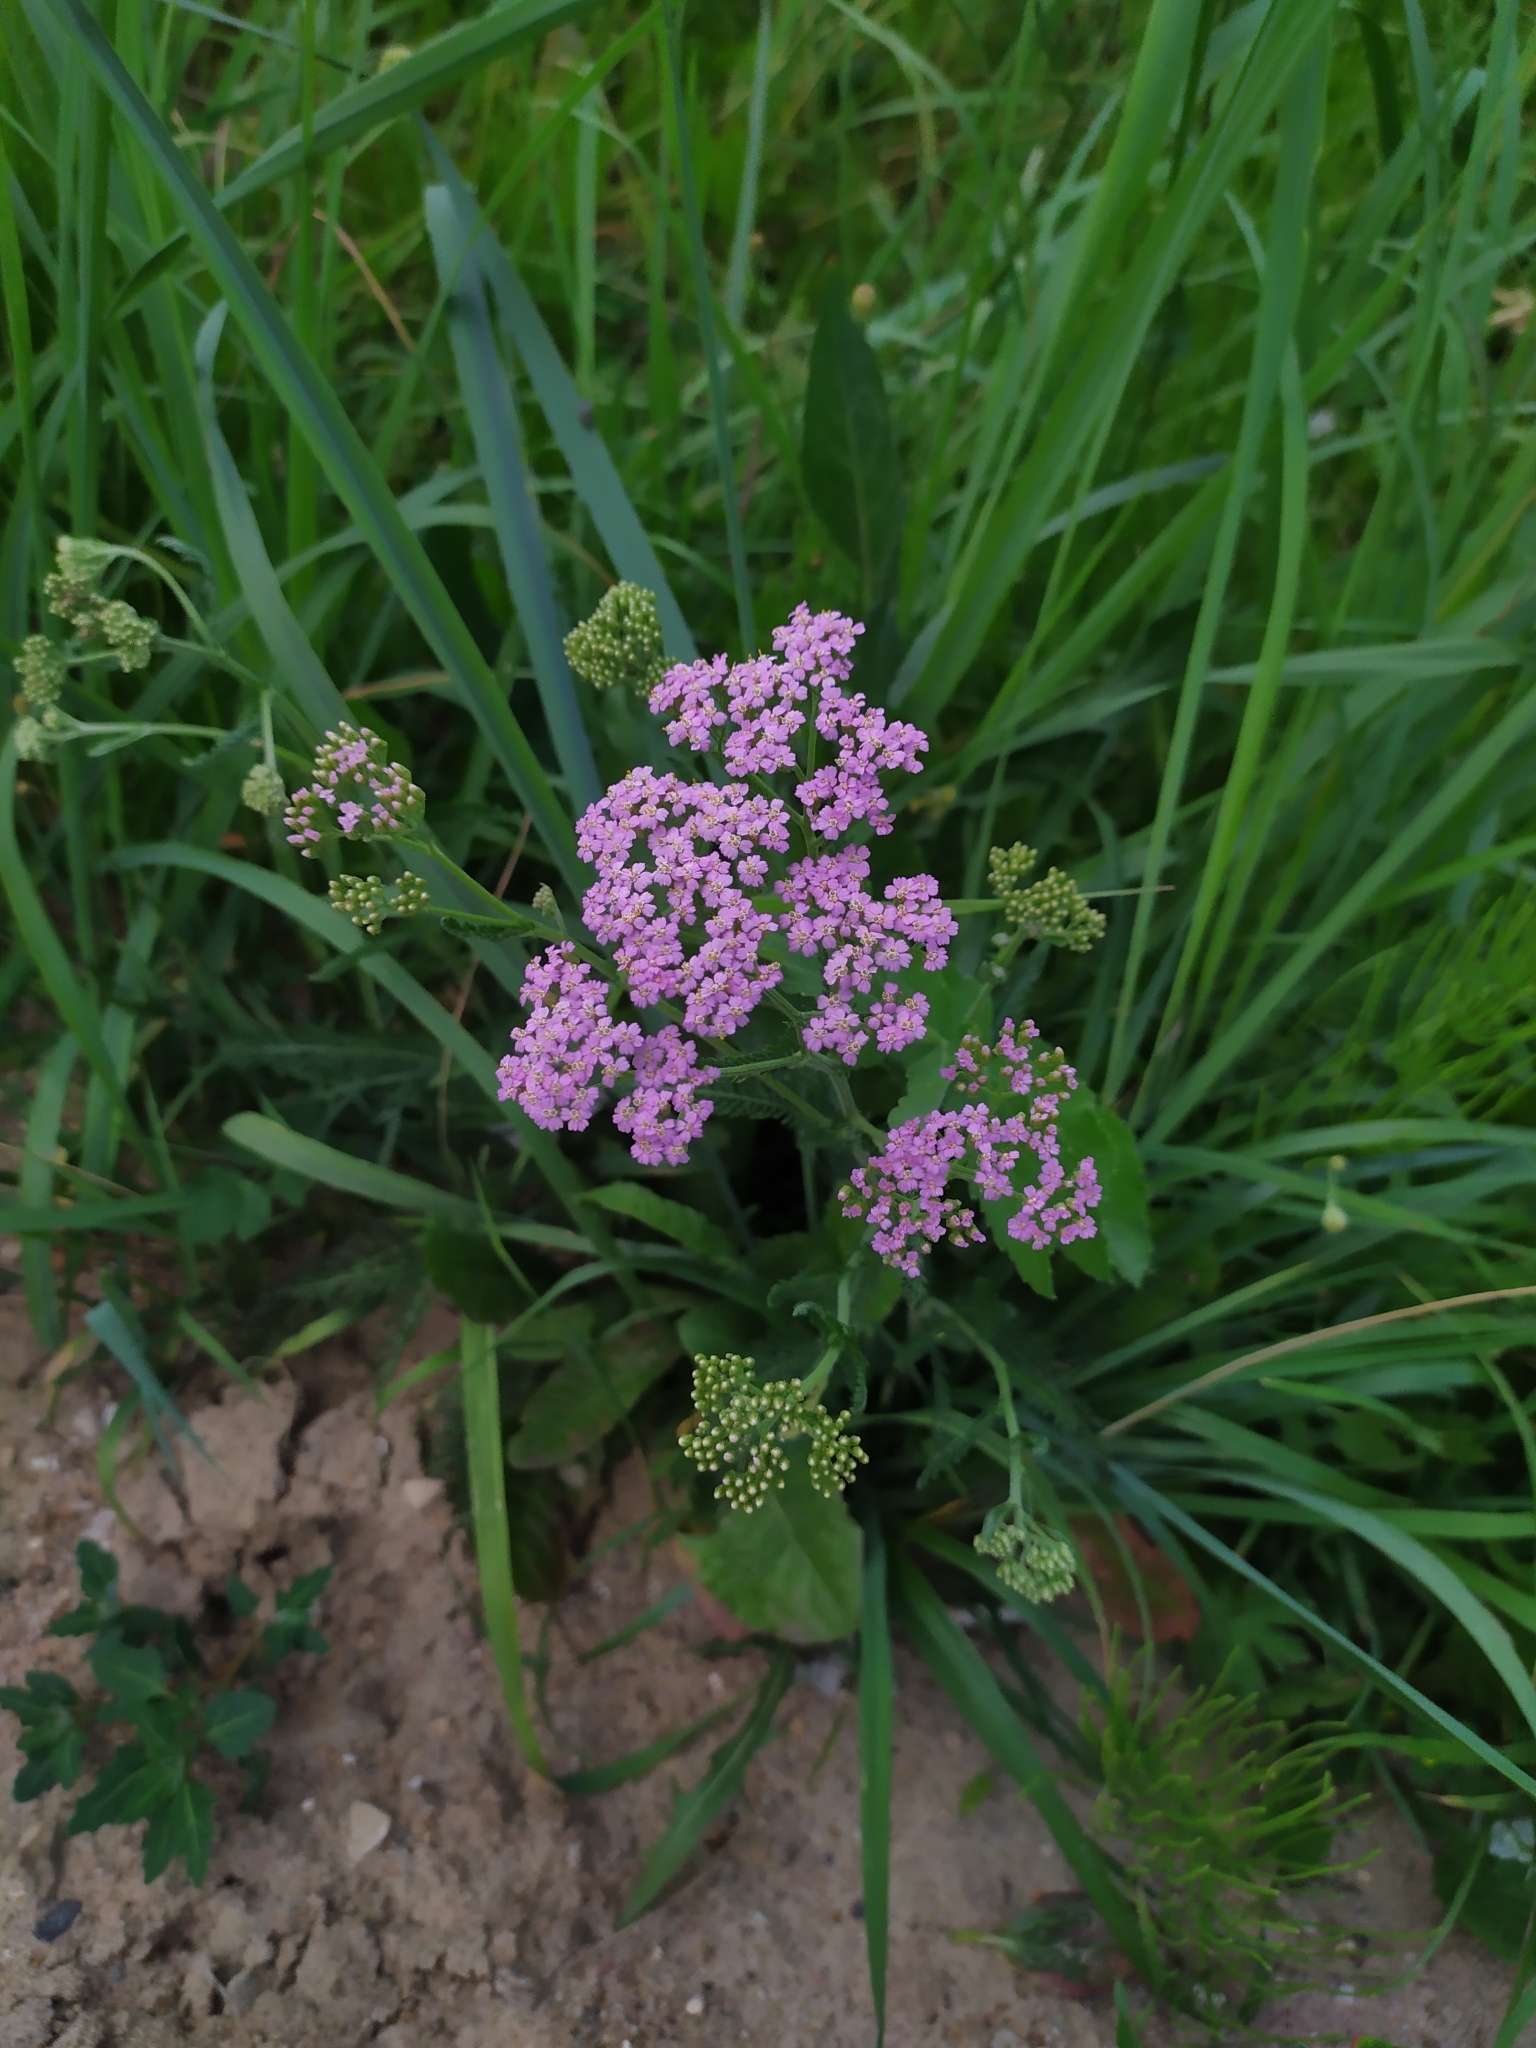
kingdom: Plantae
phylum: Tracheophyta
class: Magnoliopsida
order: Asterales
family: Asteraceae
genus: Achillea
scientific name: Achillea millefolium
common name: Yarrow
